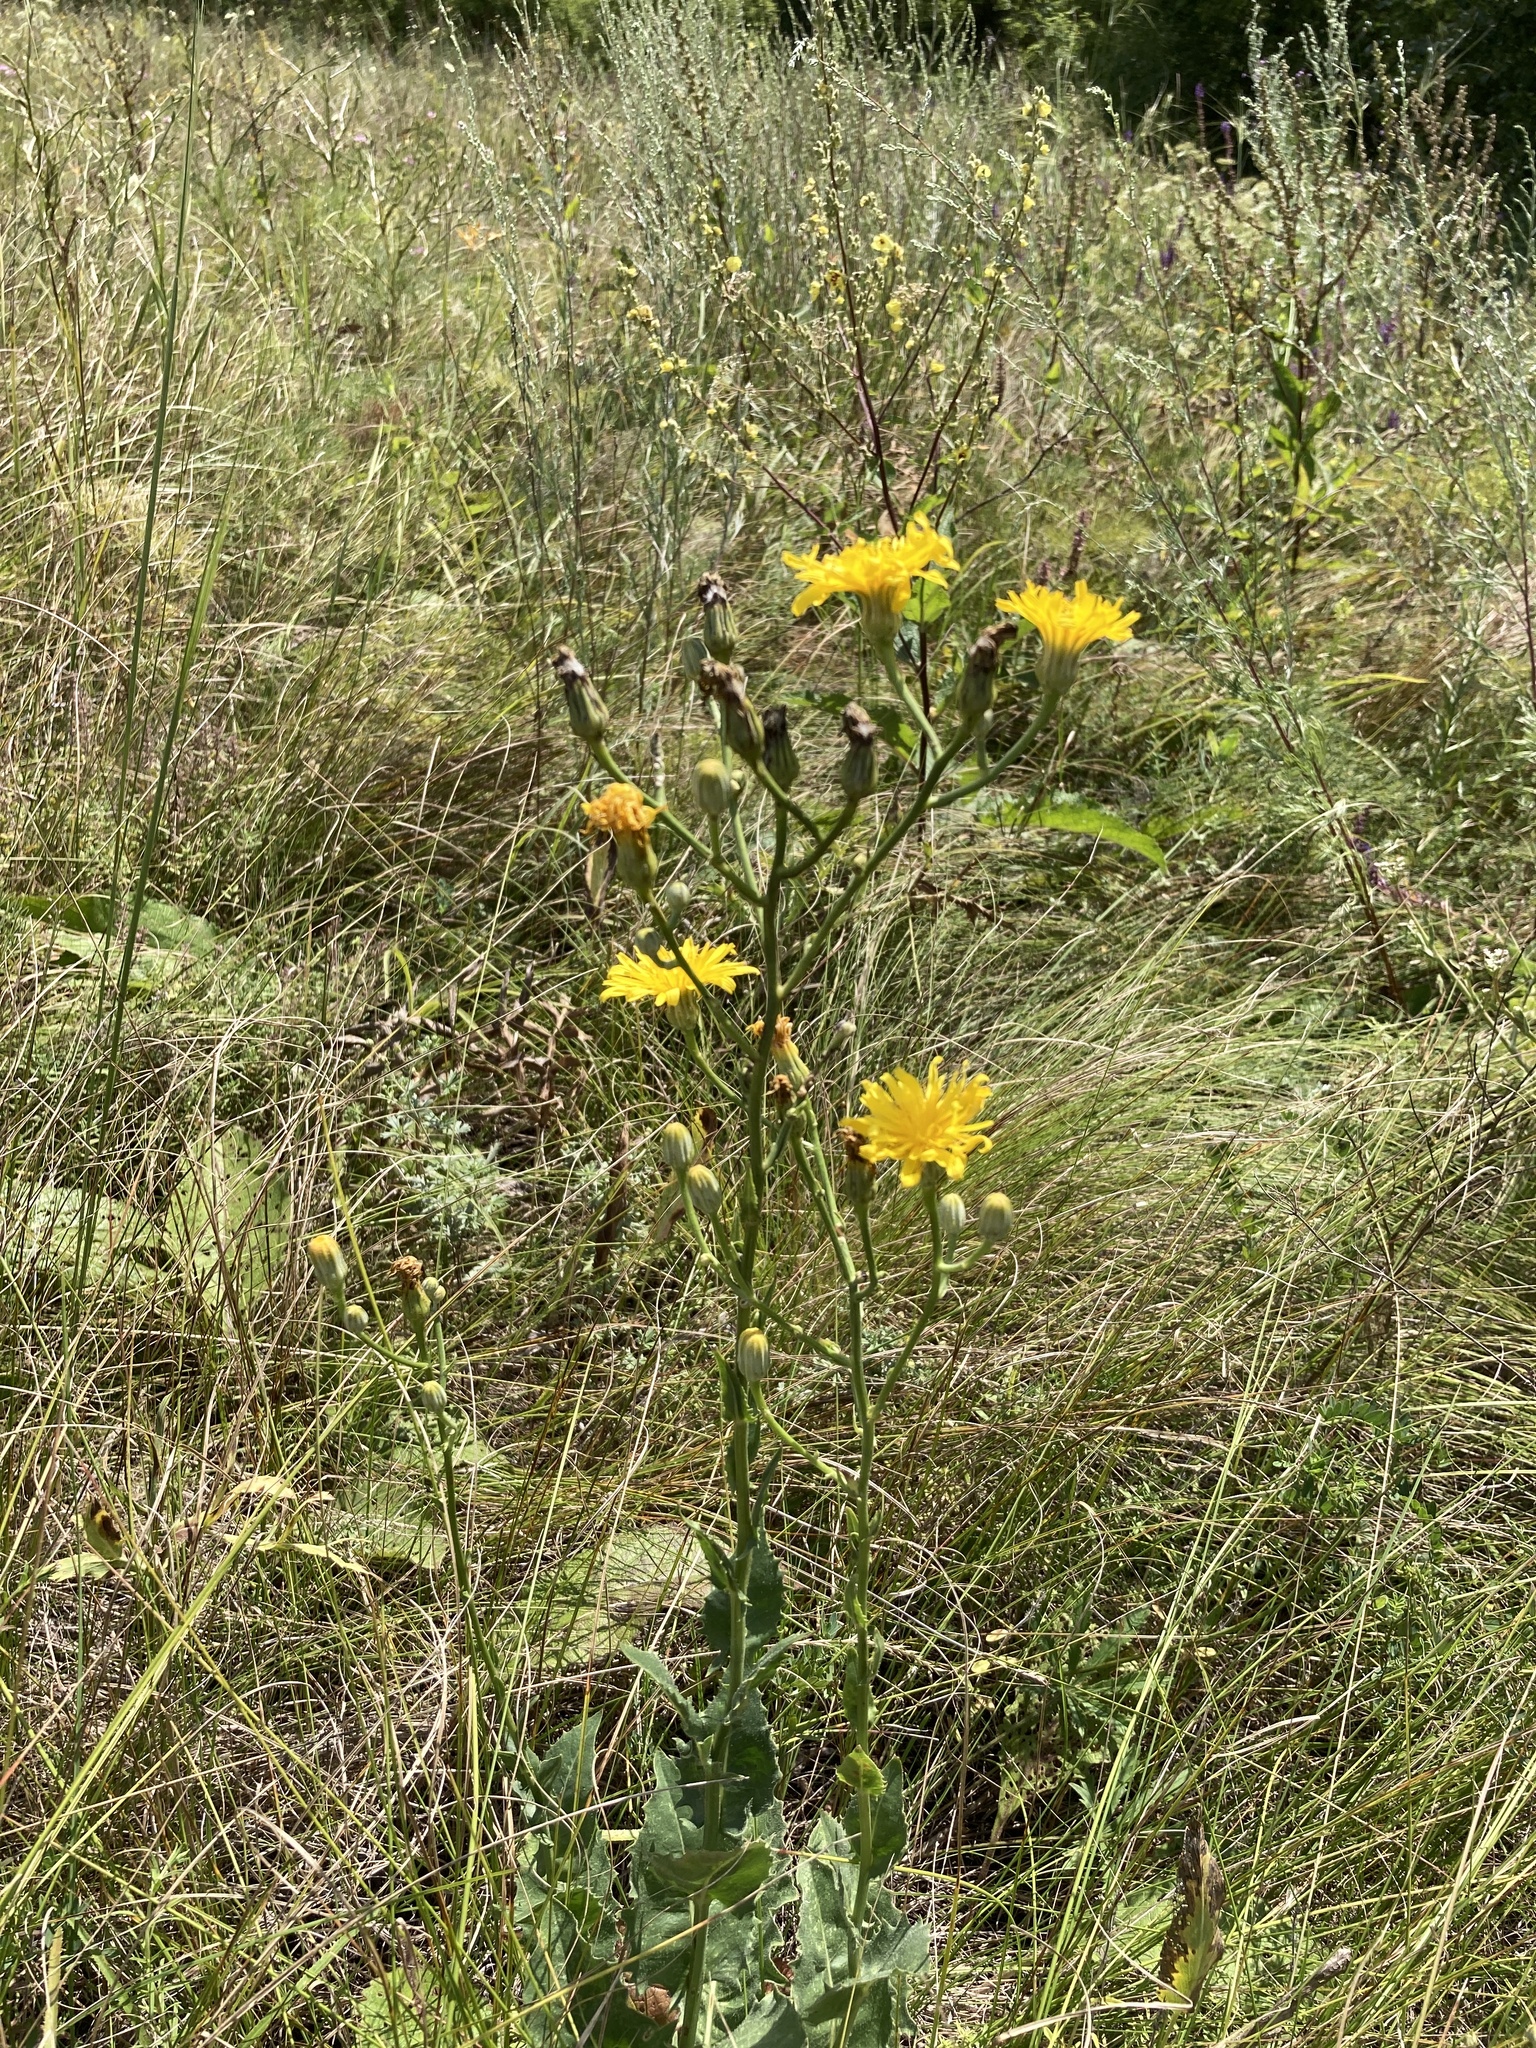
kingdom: Plantae
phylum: Tracheophyta
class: Magnoliopsida
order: Asterales
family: Asteraceae
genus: Hieracium
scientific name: Hieracium virosum
